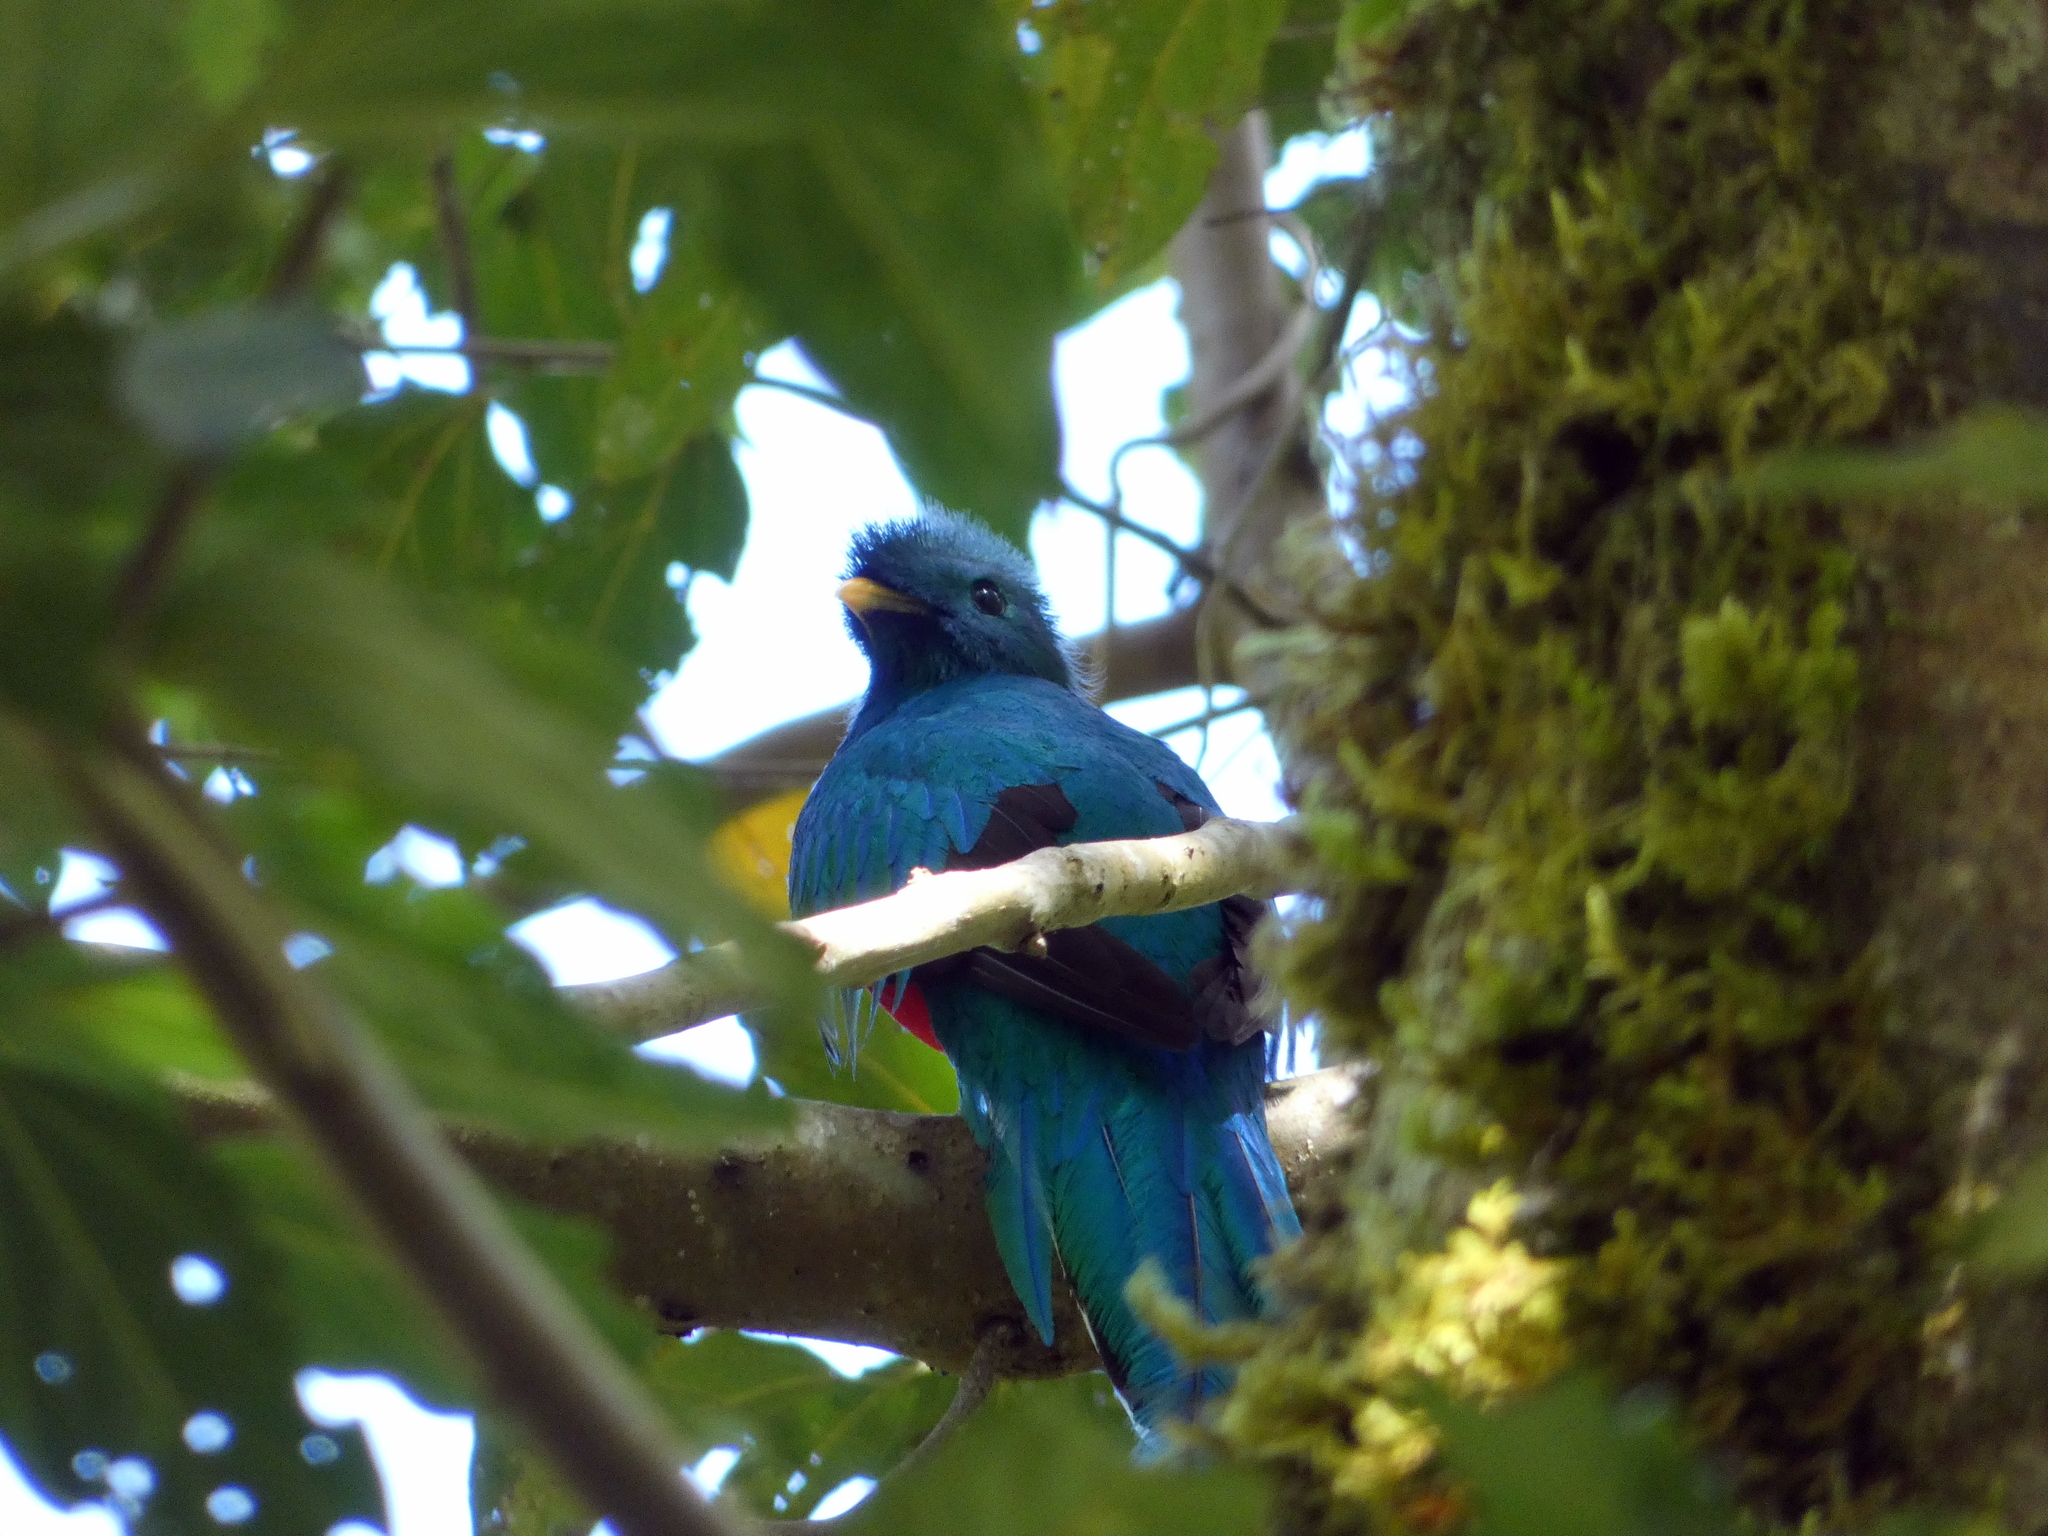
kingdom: Animalia
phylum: Chordata
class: Aves
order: Trogoniformes
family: Trogonidae
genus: Pharomachrus
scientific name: Pharomachrus mocinno
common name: Resplendent quetzal
